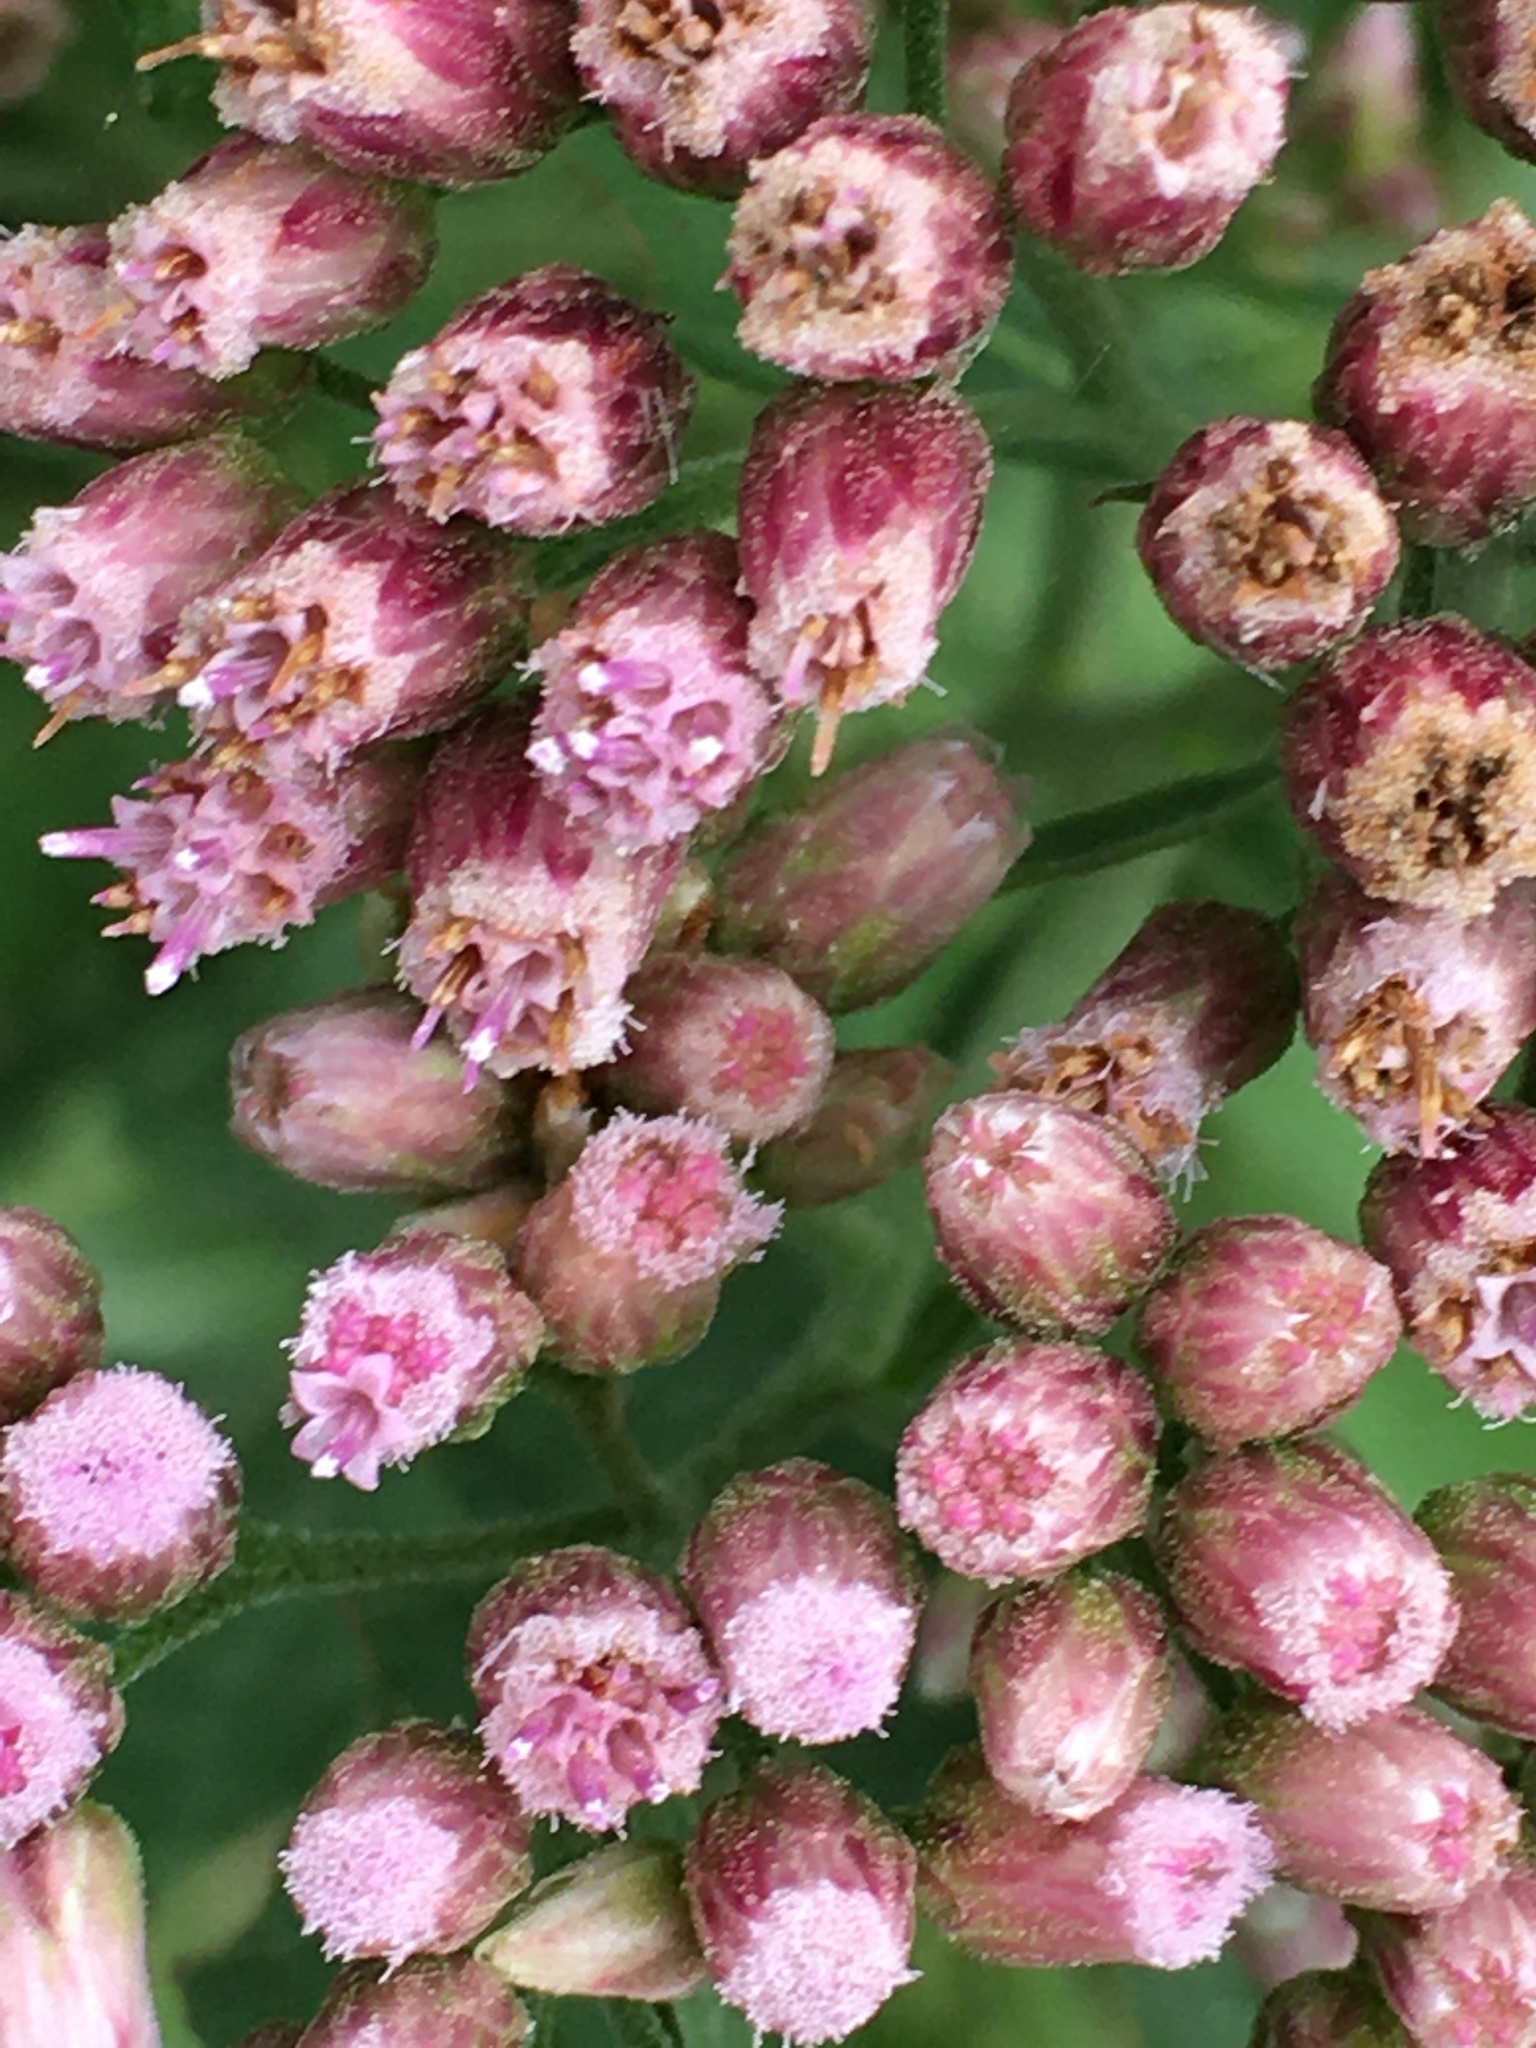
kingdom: Plantae
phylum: Tracheophyta
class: Magnoliopsida
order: Asterales
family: Asteraceae
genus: Pluchea
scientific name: Pluchea camphorata
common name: Camphor pluchea
